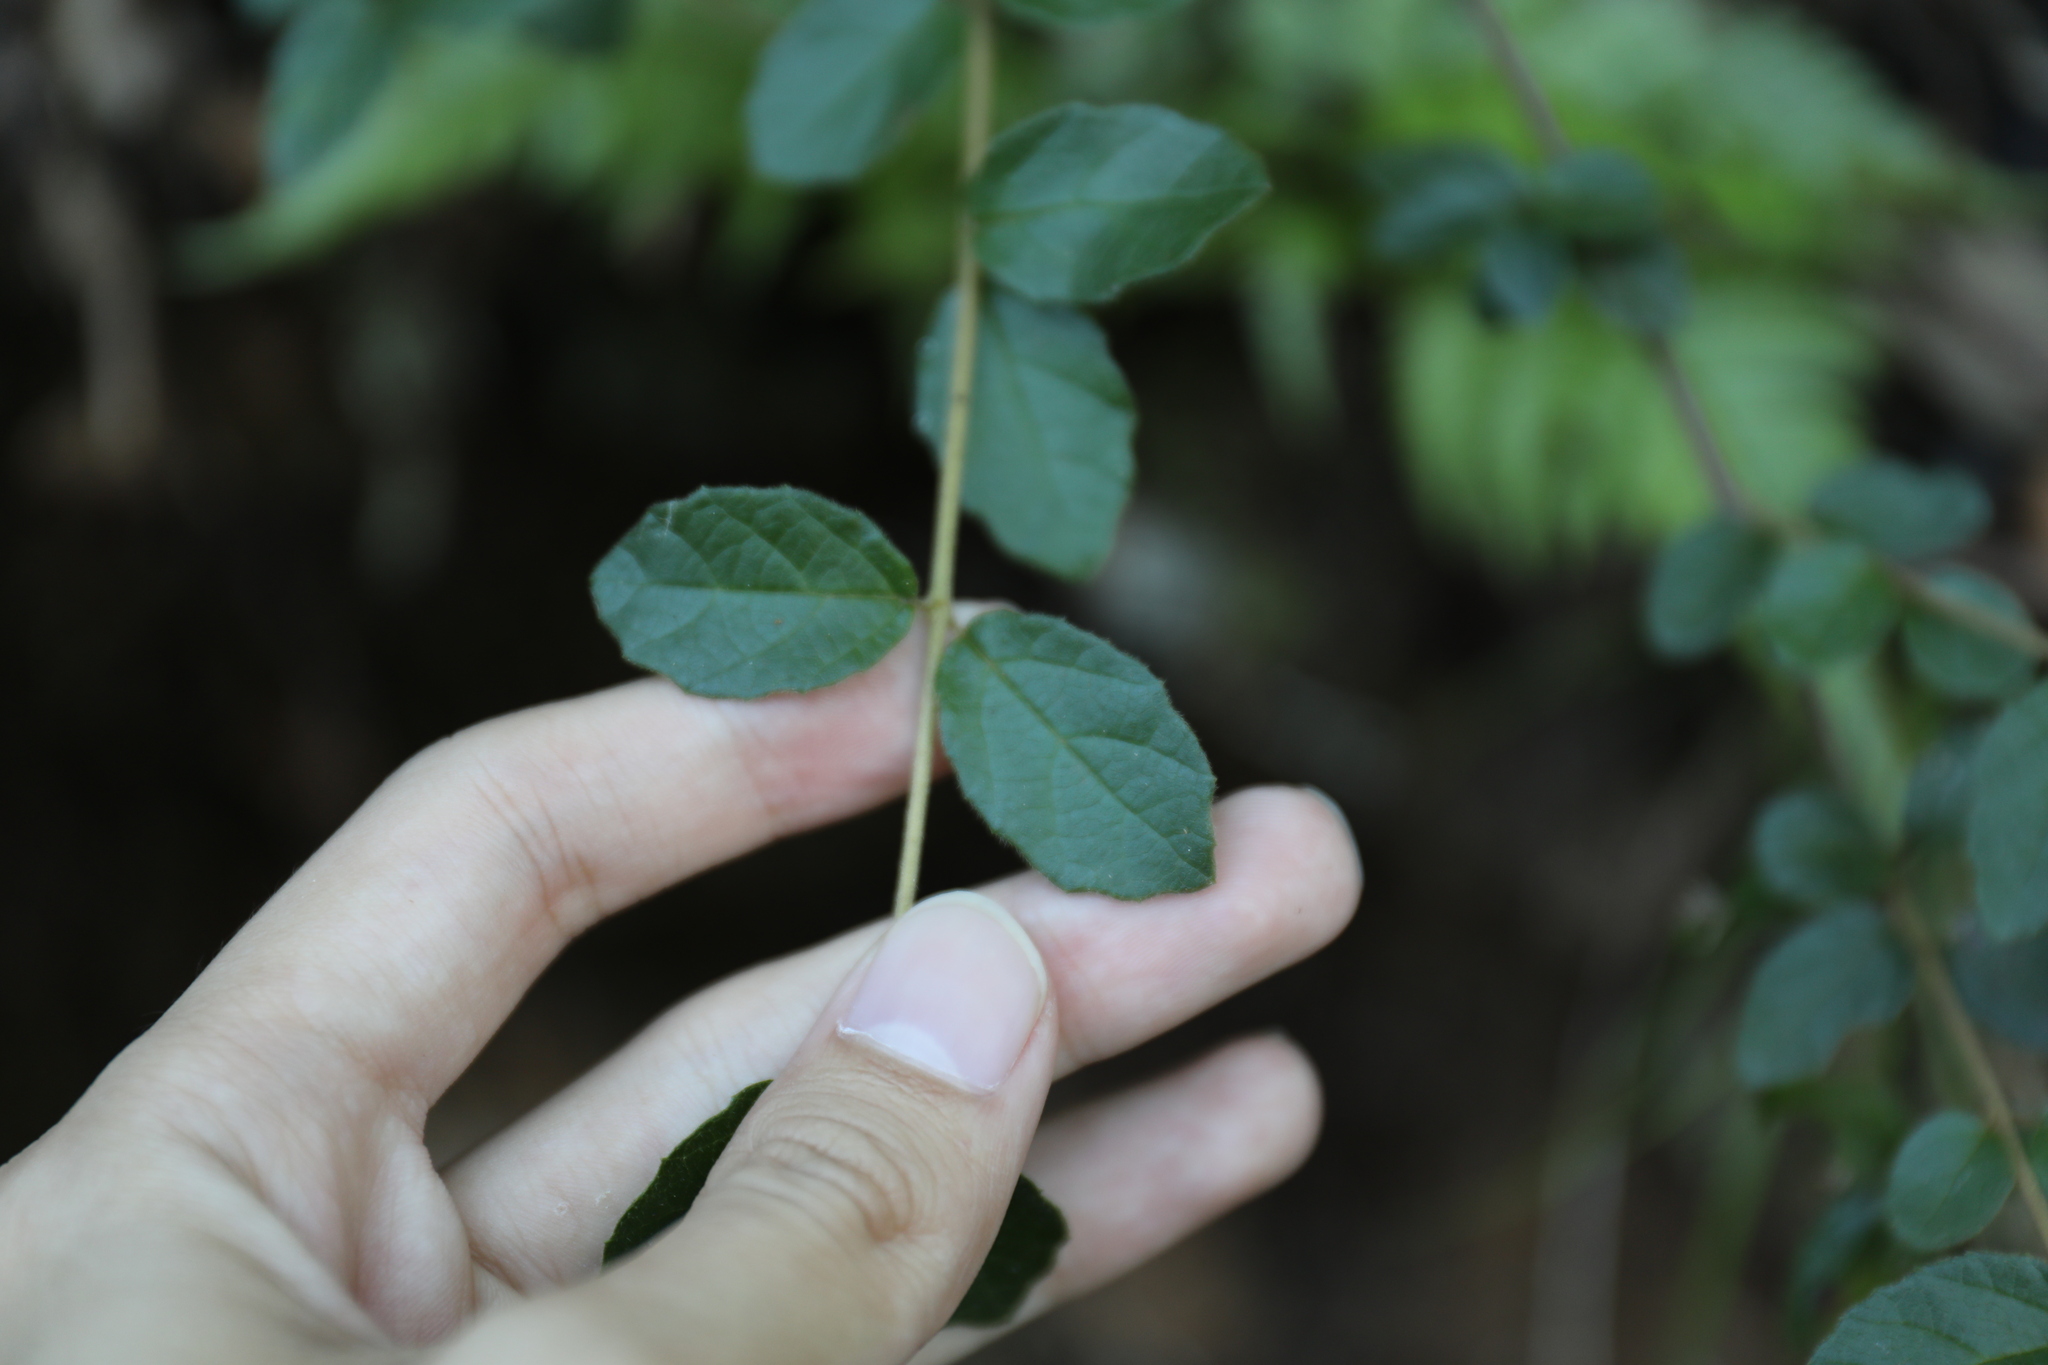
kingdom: Plantae
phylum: Tracheophyta
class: Magnoliopsida
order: Dipsacales
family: Viburnaceae
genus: Viburnum
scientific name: Viburnum luzonicum
